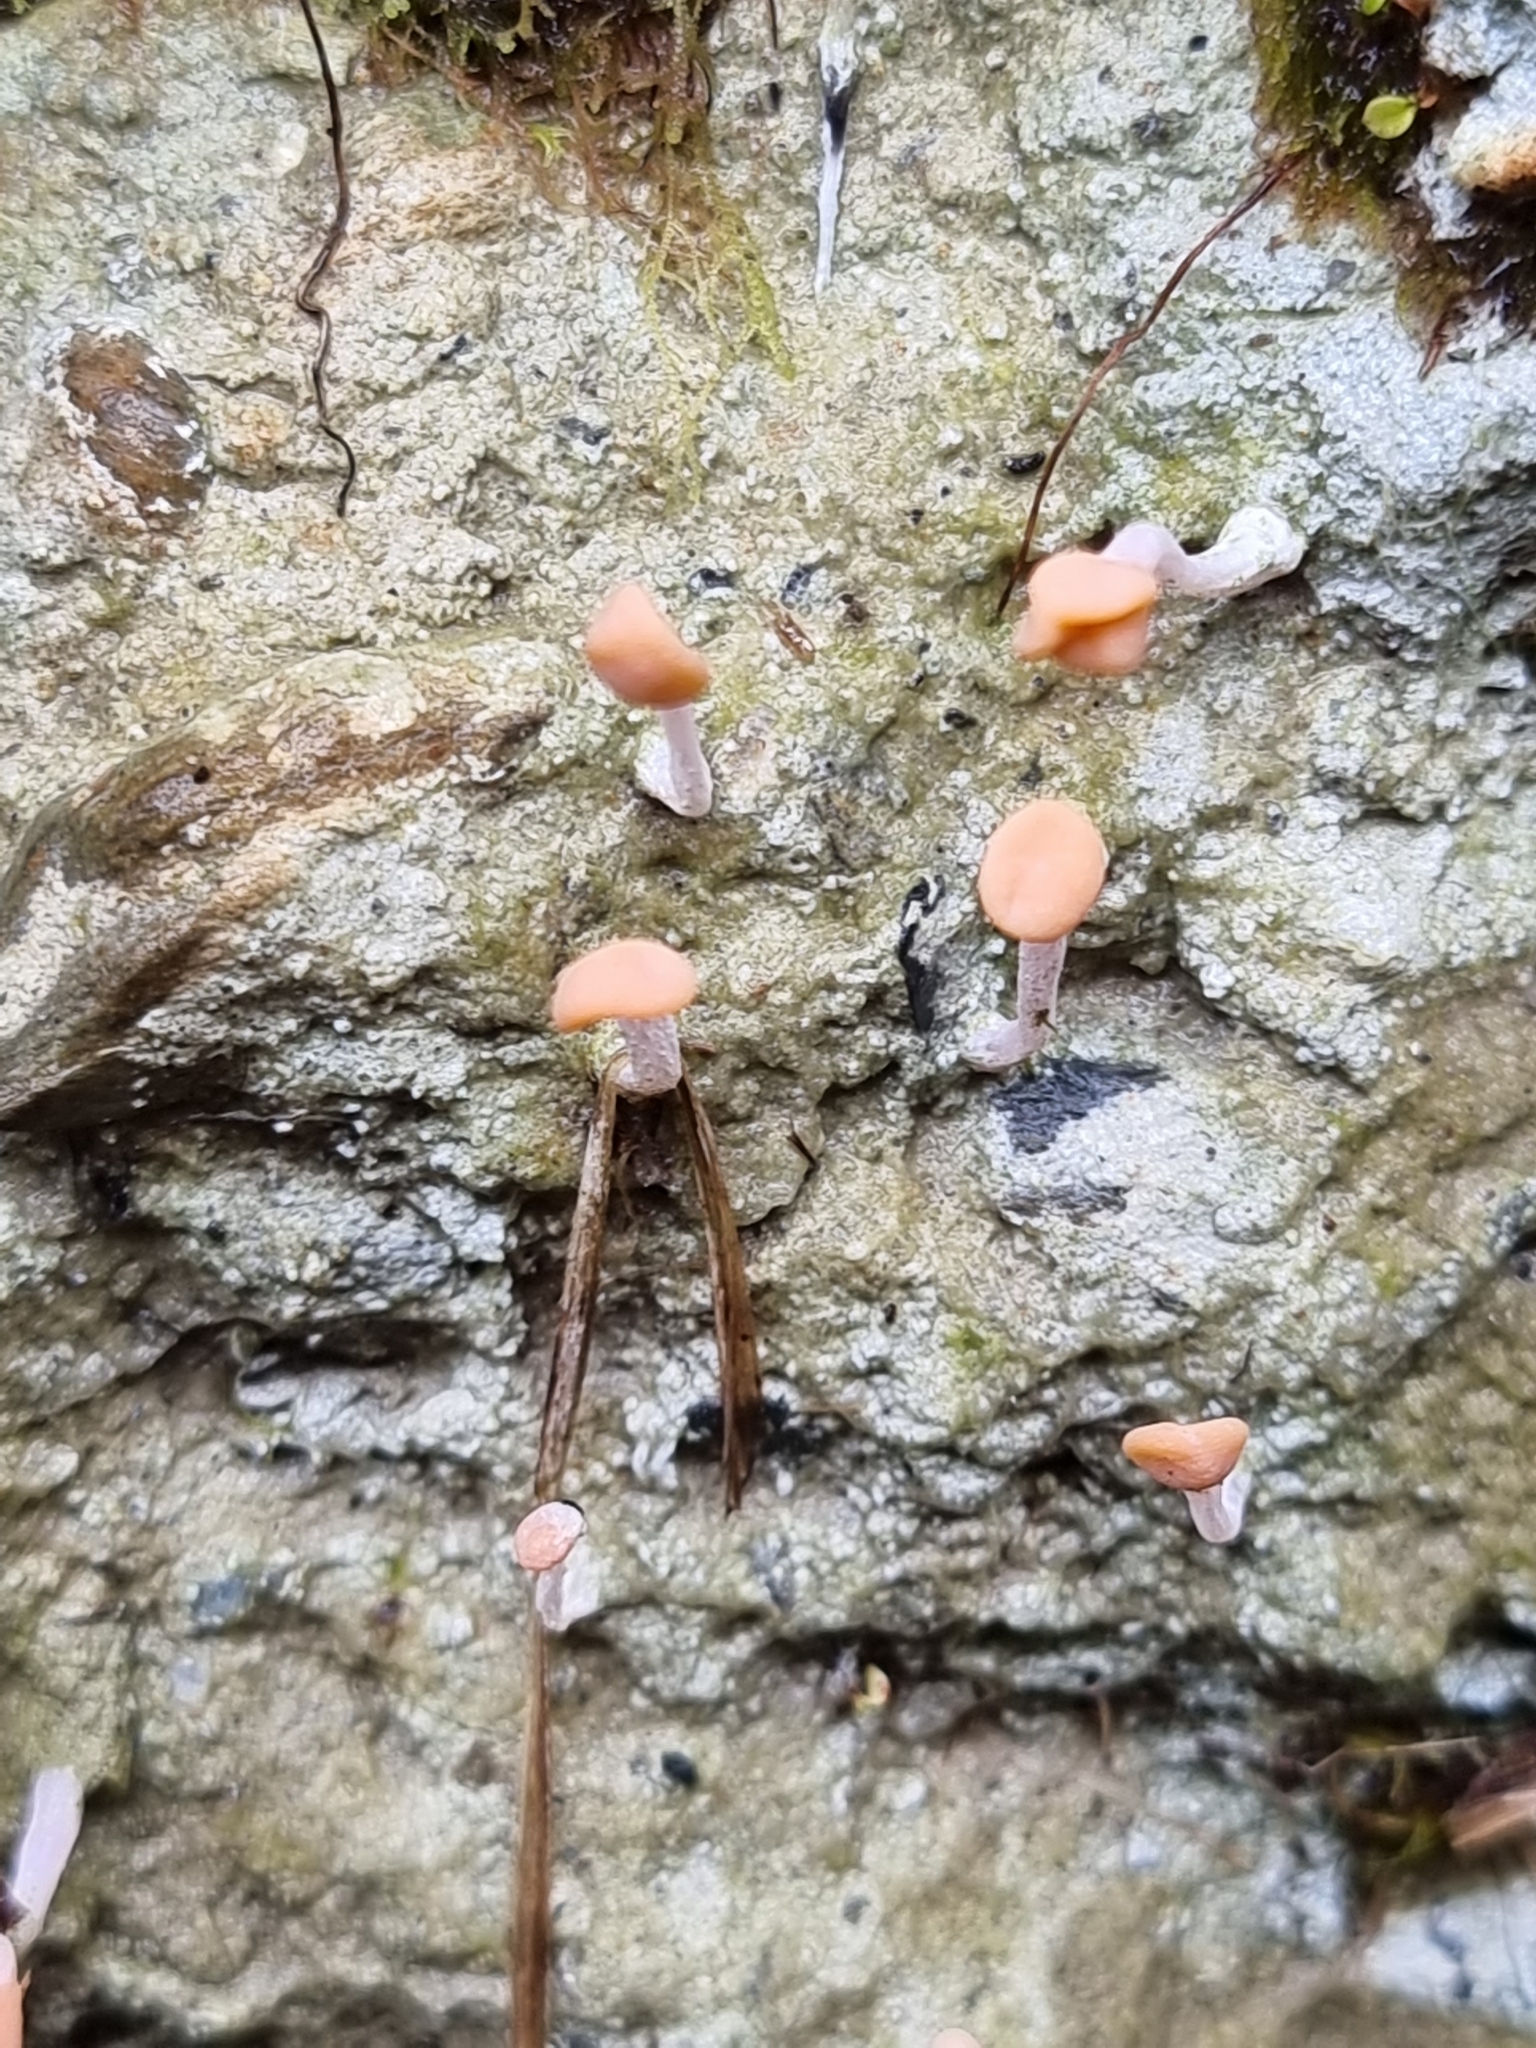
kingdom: Fungi
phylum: Ascomycota
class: Lecanoromycetes
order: Pertusariales
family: Icmadophilaceae
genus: Dibaeis
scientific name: Dibaeis arcuata
